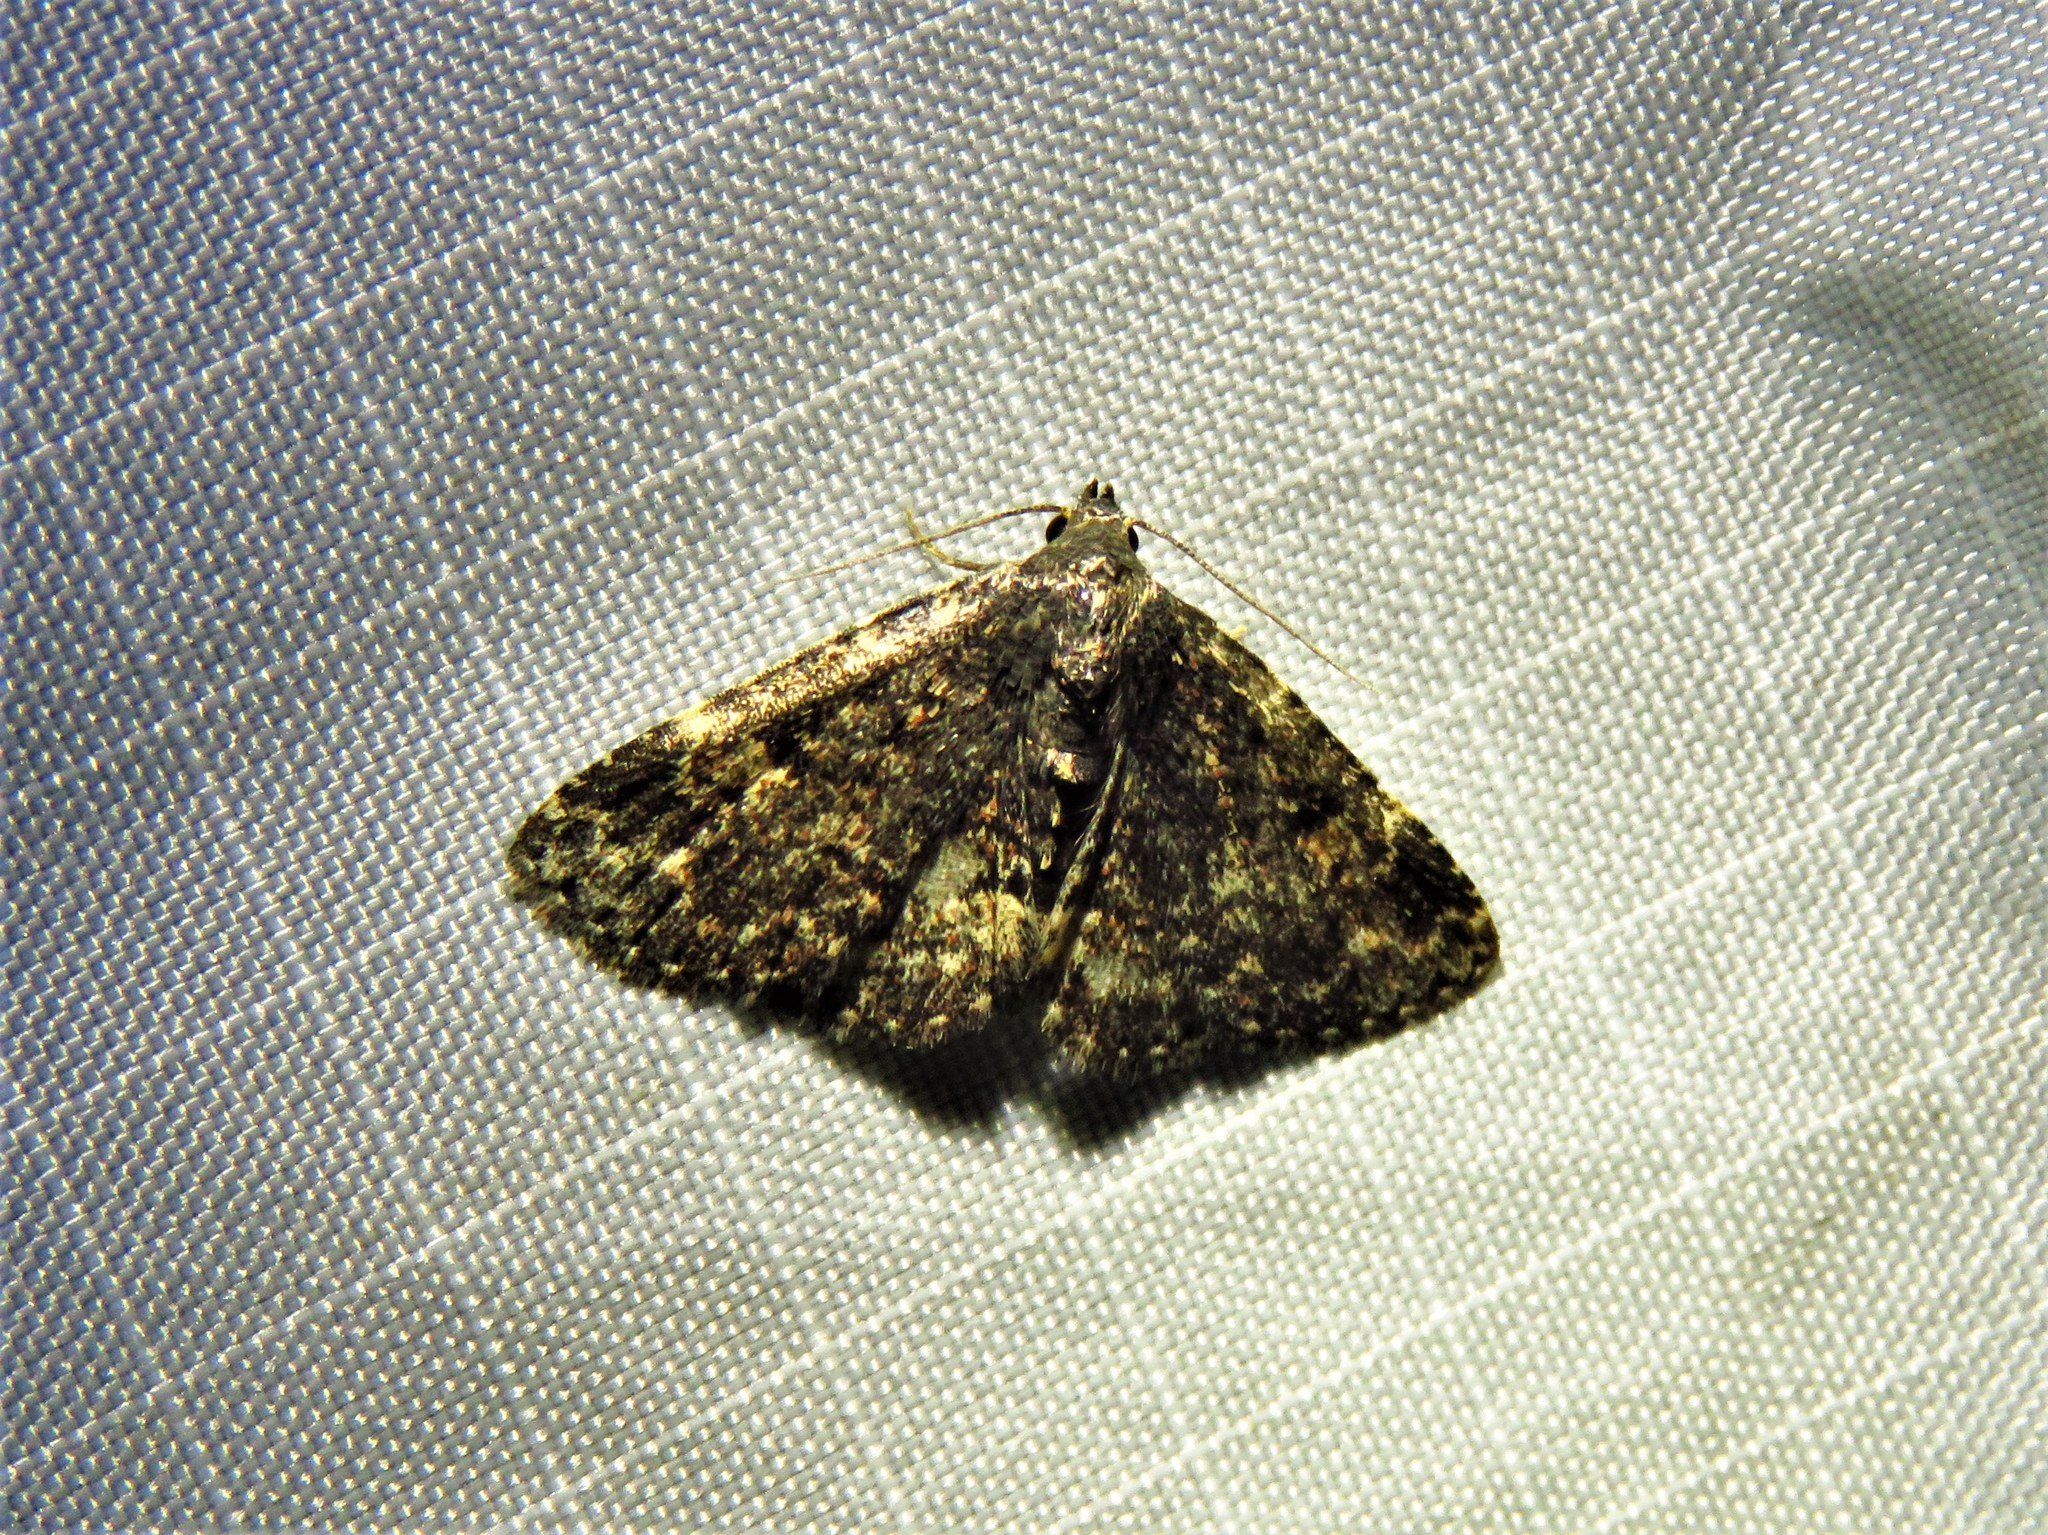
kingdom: Animalia
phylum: Arthropoda
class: Insecta
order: Lepidoptera
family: Erebidae
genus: Metalectra
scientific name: Metalectra diabolica
